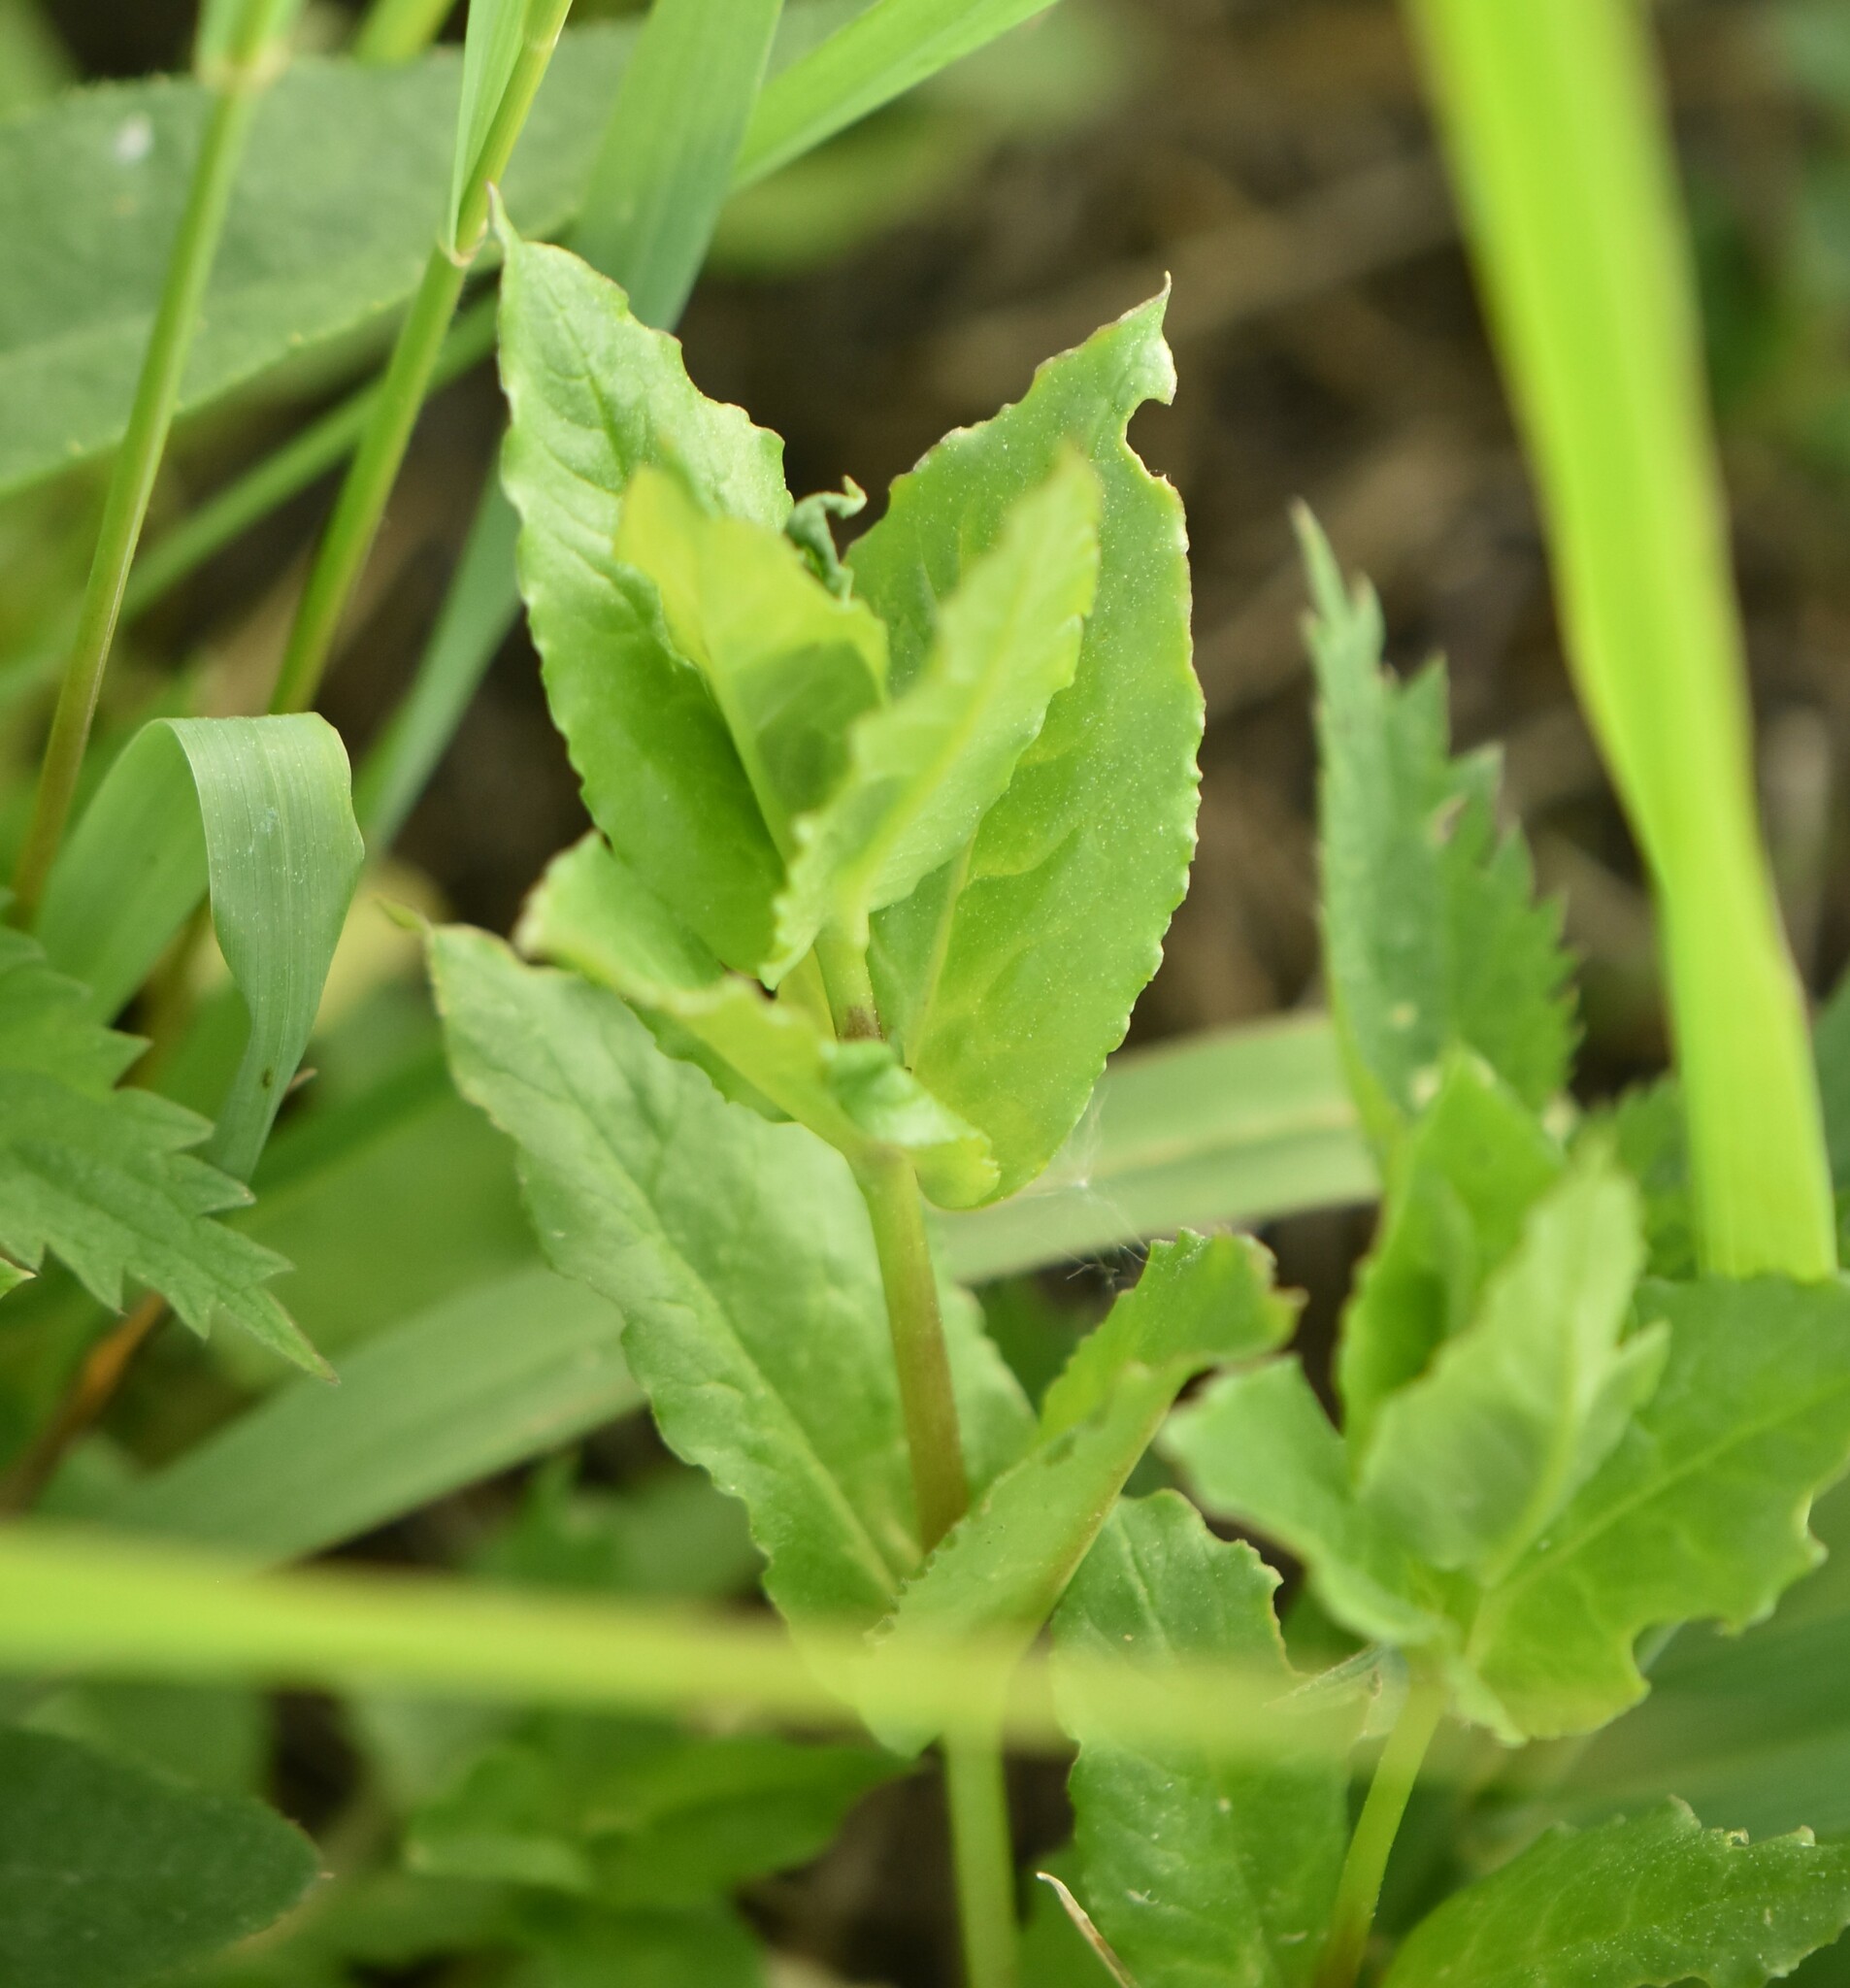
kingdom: Plantae
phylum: Tracheophyta
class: Magnoliopsida
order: Caryophyllales
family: Caryophyllaceae
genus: Stellaria
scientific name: Stellaria aquatica
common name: Water chickweed
